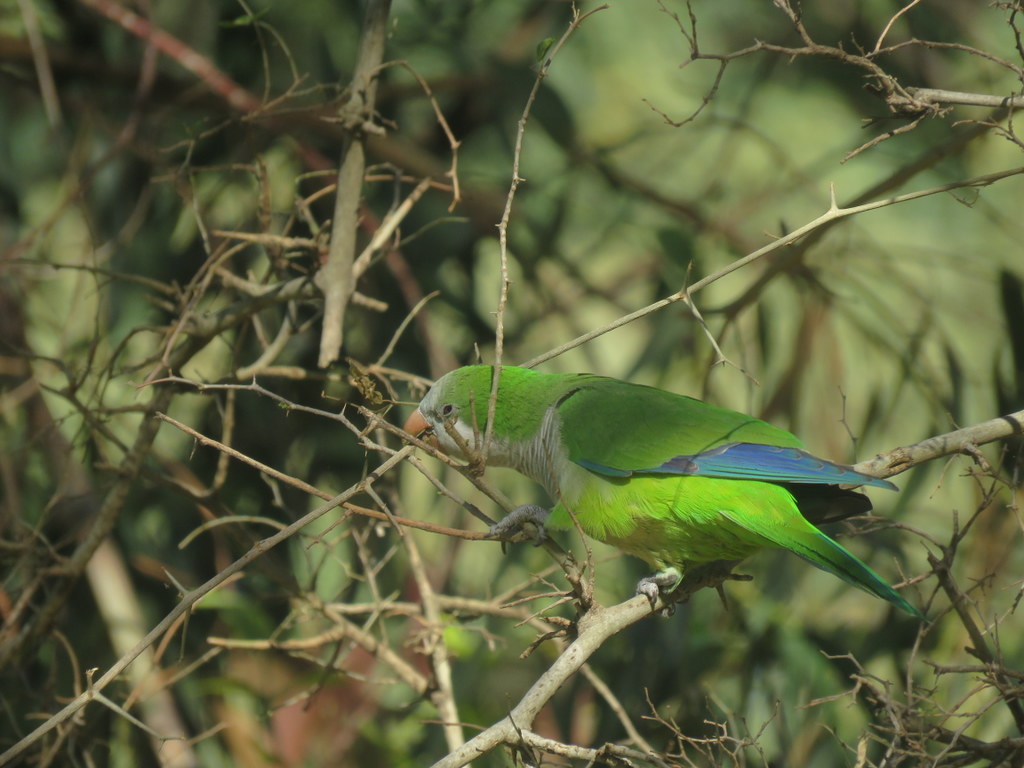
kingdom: Animalia
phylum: Chordata
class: Aves
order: Psittaciformes
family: Psittacidae
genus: Myiopsitta
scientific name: Myiopsitta monachus
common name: Monk parakeet
